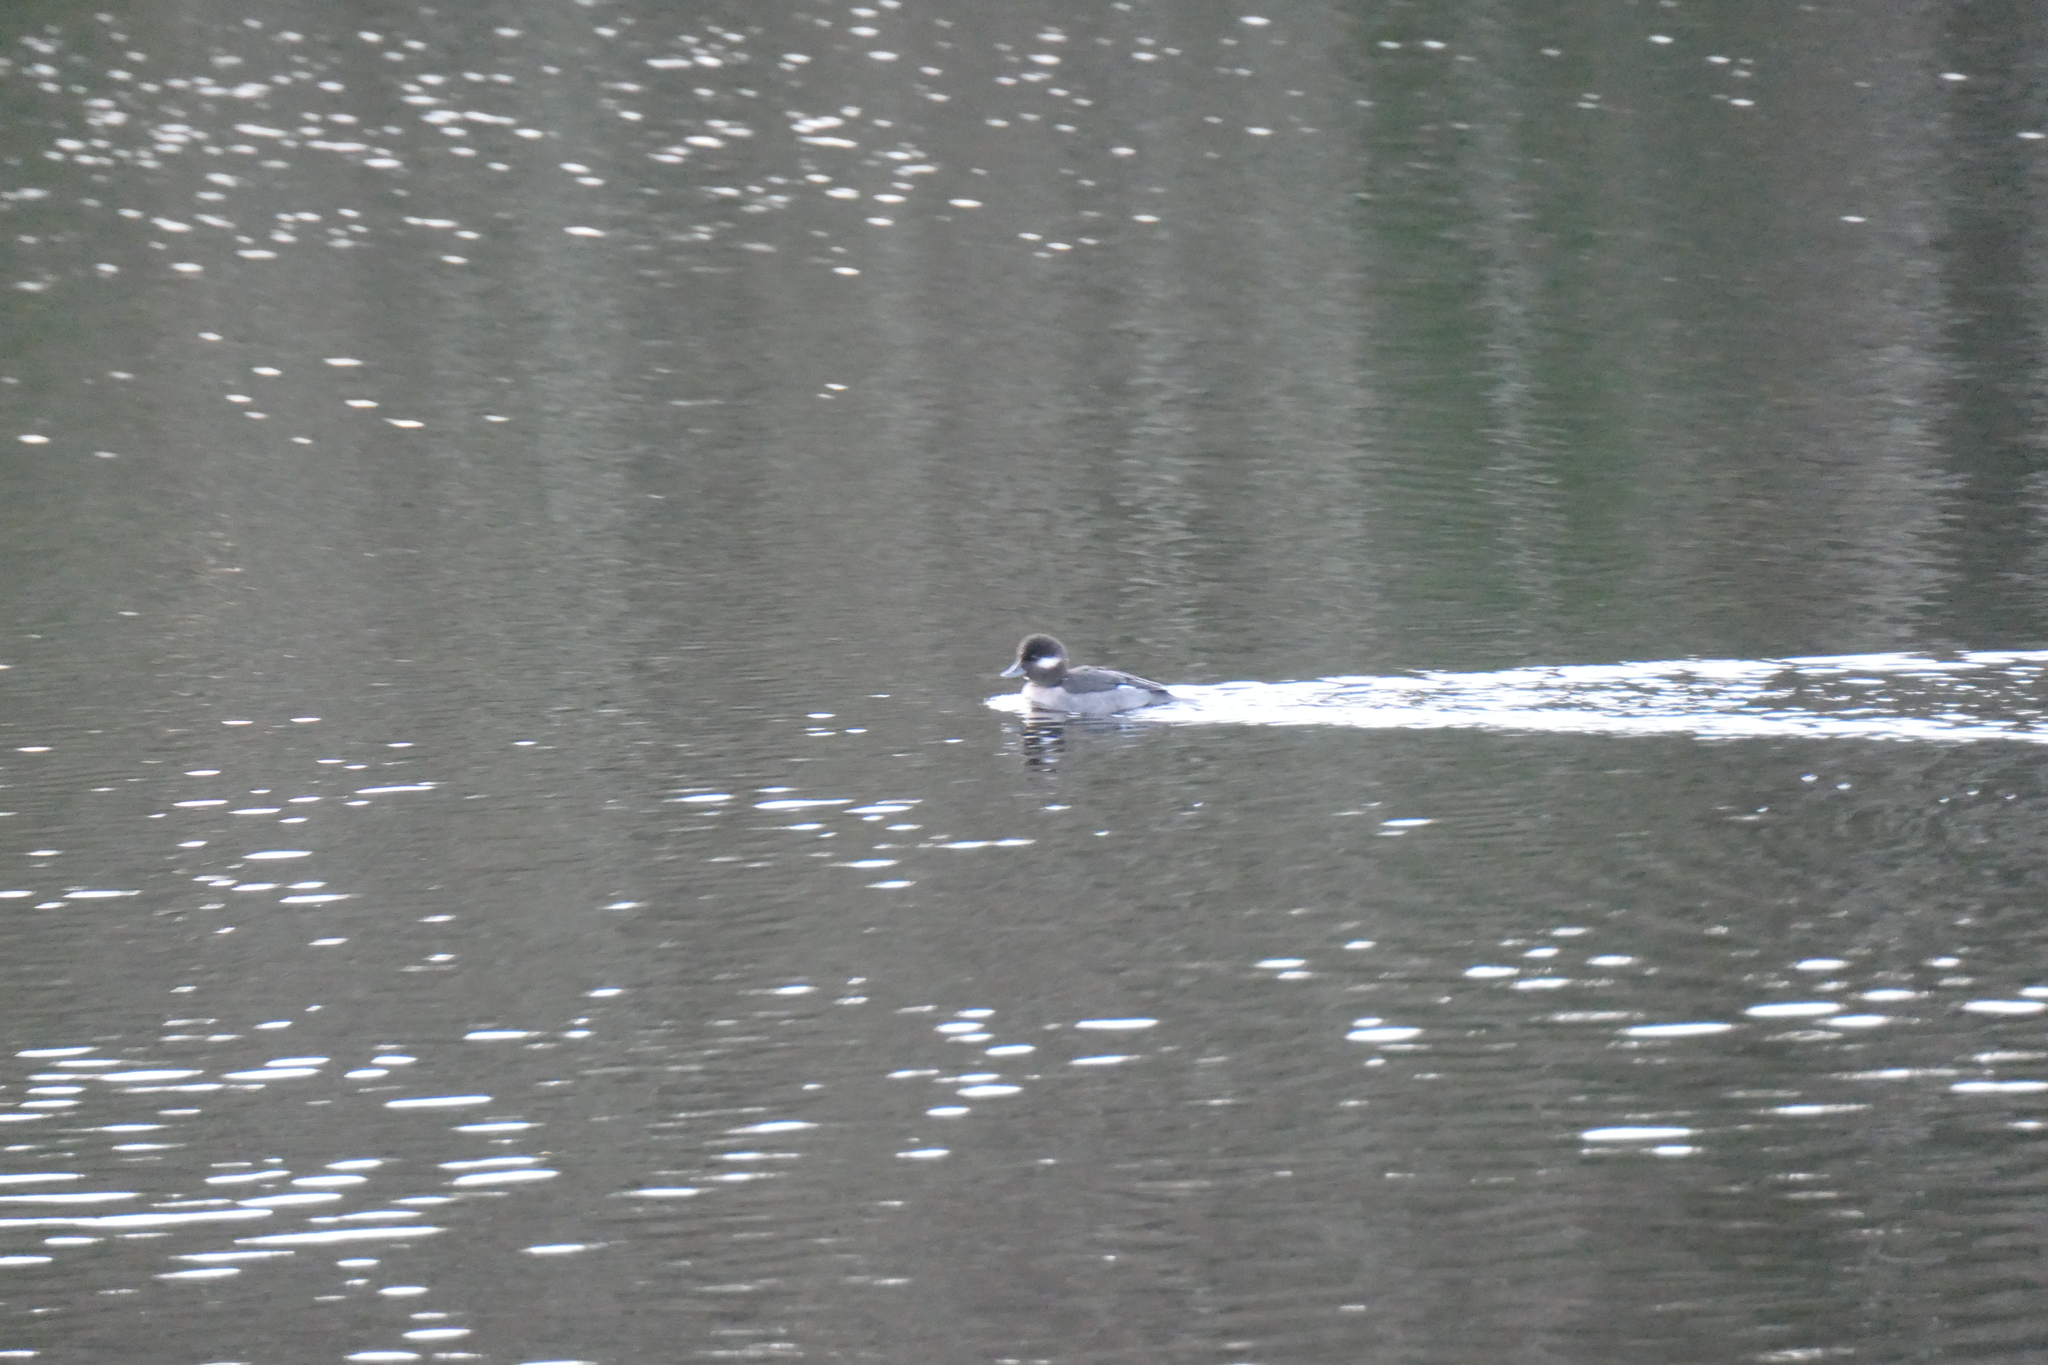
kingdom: Animalia
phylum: Chordata
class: Aves
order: Anseriformes
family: Anatidae
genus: Bucephala
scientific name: Bucephala albeola
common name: Bufflehead
